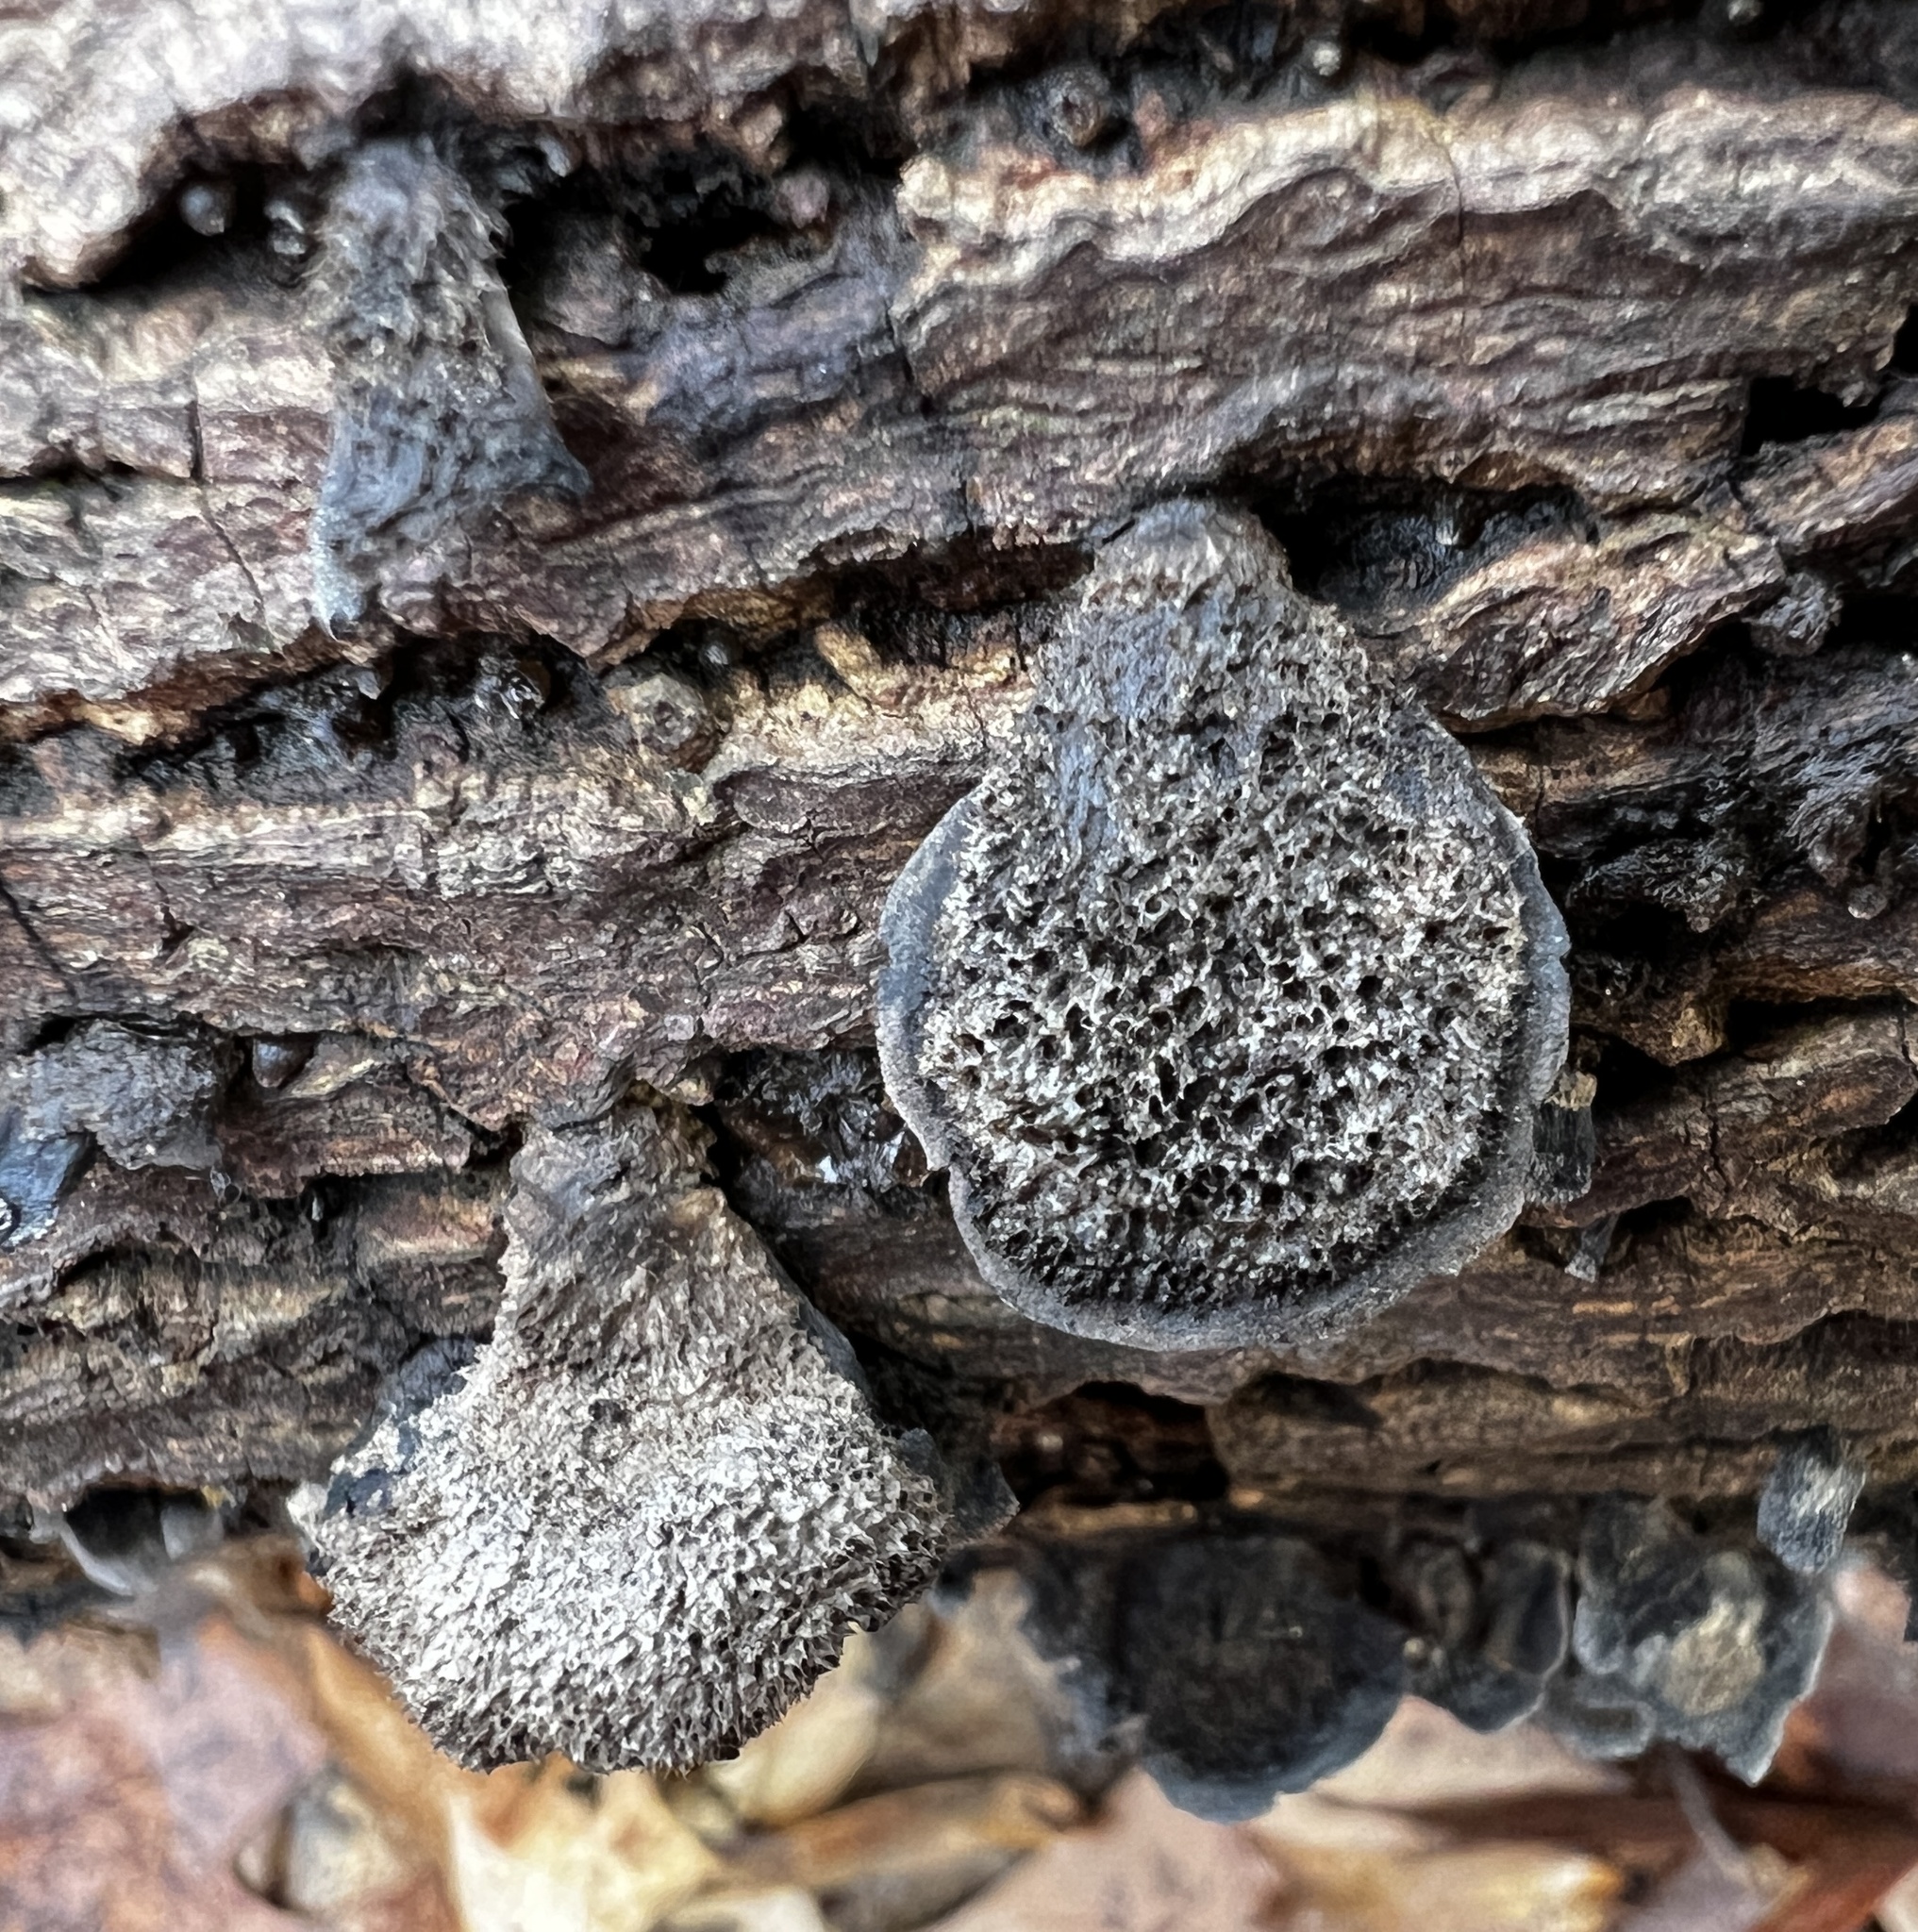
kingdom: Fungi
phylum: Basidiomycota
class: Agaricomycetes
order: Agaricales
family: Pleurotaceae
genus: Resupinatus
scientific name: Resupinatus trichotis
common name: Hairy oysterling
